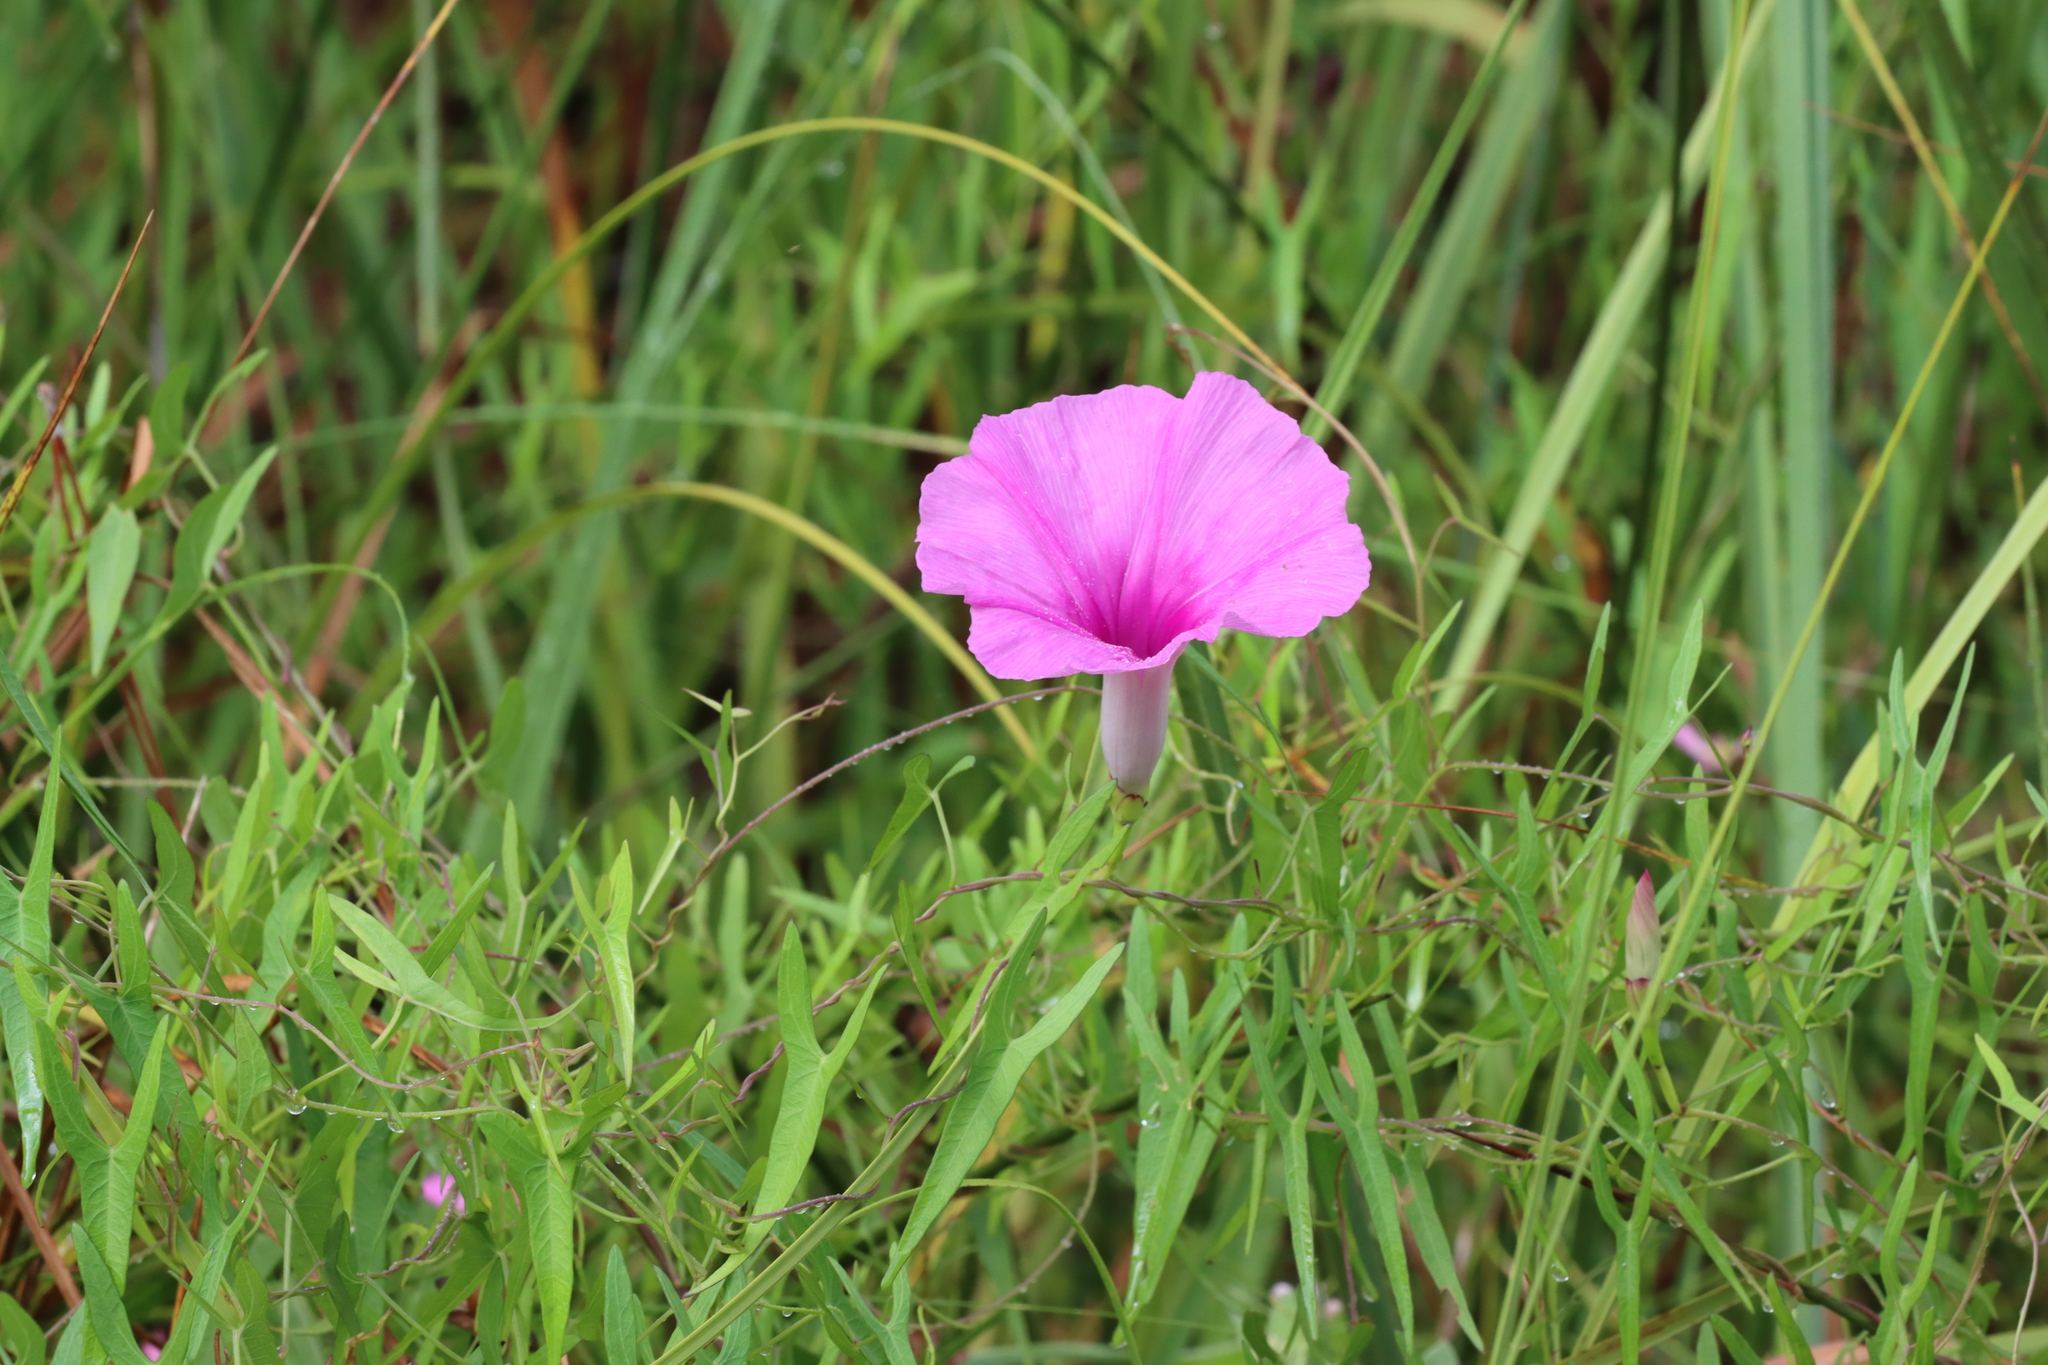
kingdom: Plantae
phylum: Tracheophyta
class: Magnoliopsida
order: Solanales
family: Convolvulaceae
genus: Ipomoea
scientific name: Ipomoea sagittata
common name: Saltmarsh morning glory
